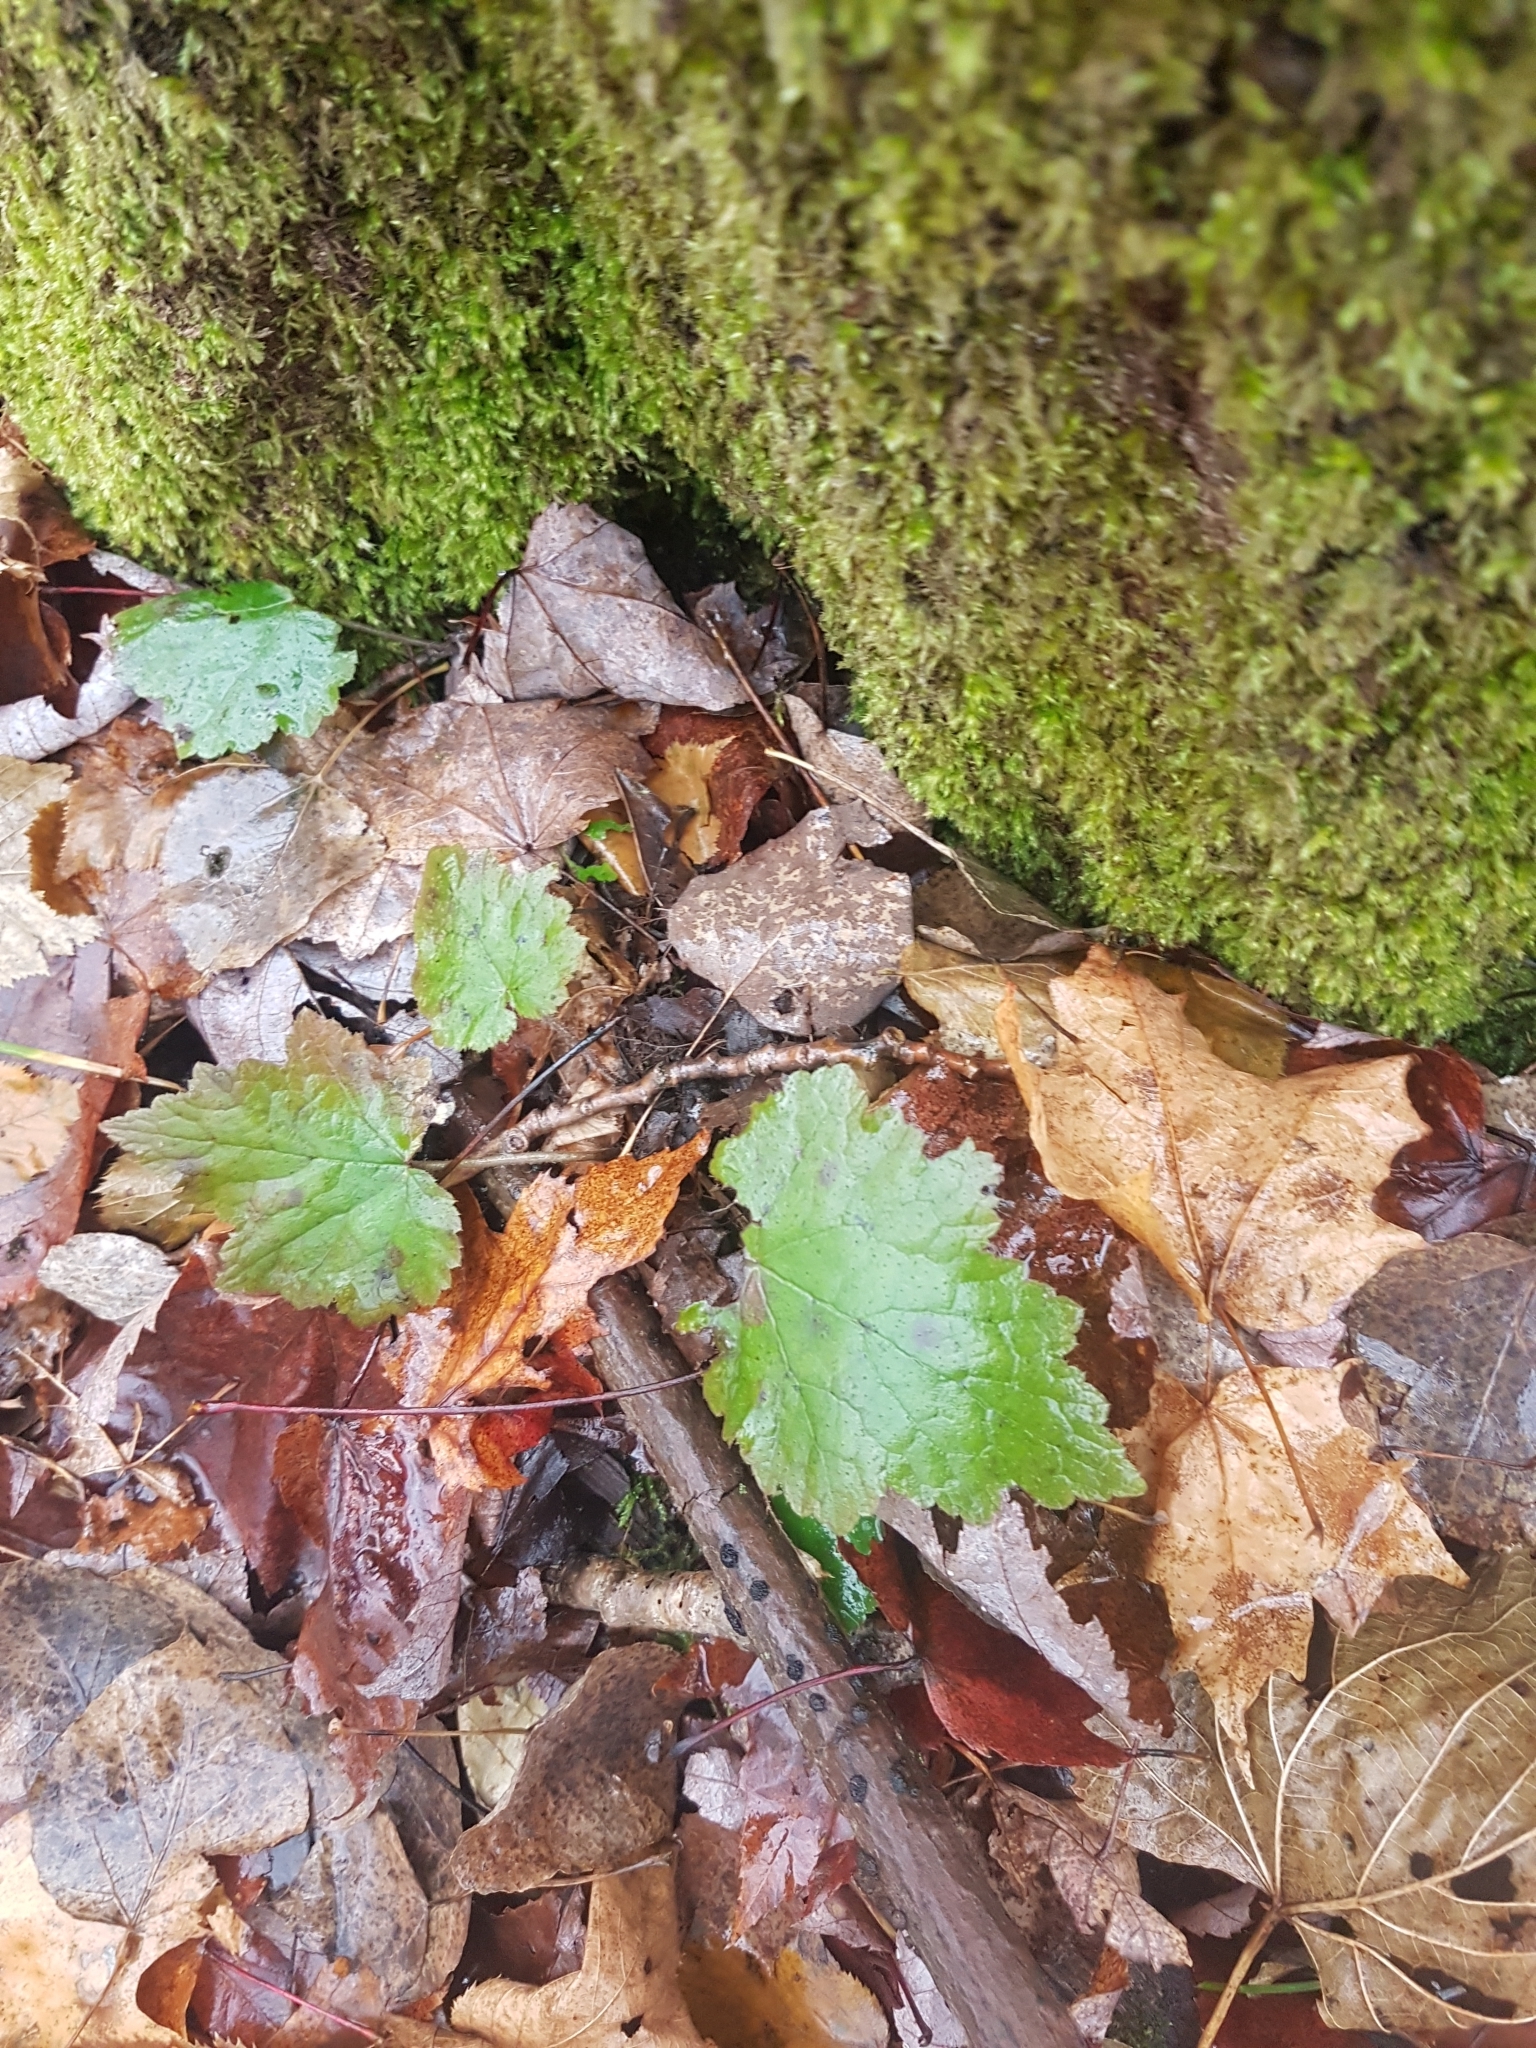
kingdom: Plantae
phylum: Tracheophyta
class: Magnoliopsida
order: Saxifragales
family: Saxifragaceae
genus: Tiarella
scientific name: Tiarella stolonifera
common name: Stoloniferous foamflower
